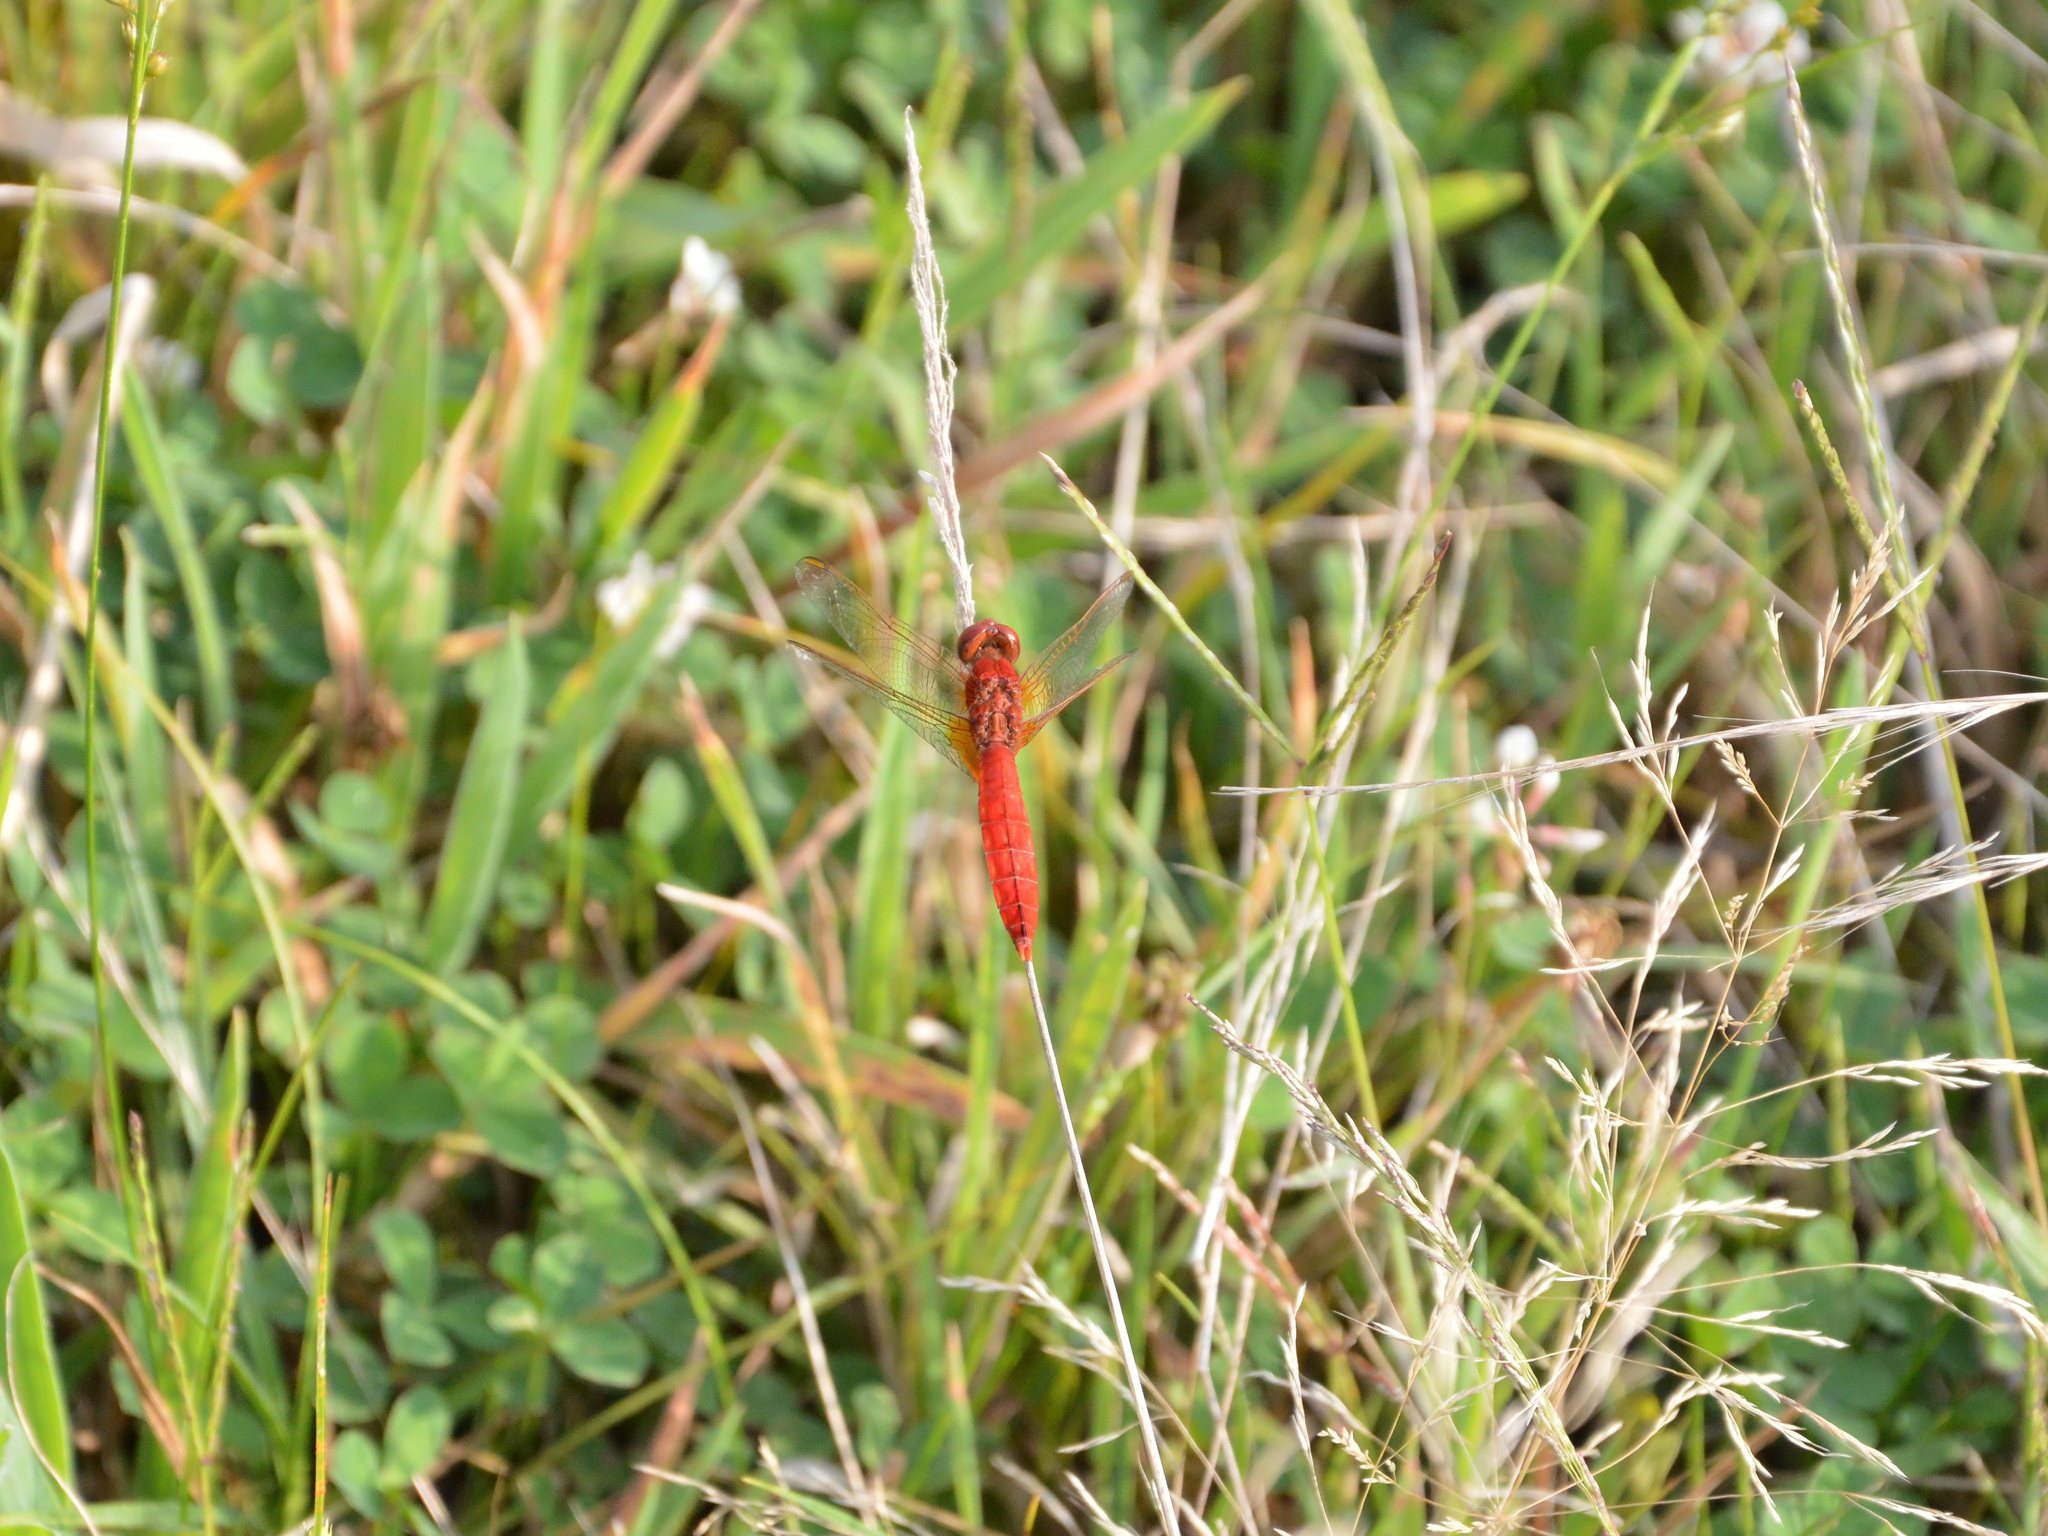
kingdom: Animalia
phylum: Arthropoda
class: Insecta
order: Odonata
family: Libellulidae
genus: Crocothemis
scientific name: Crocothemis erythraea
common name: Scarlet dragonfly
